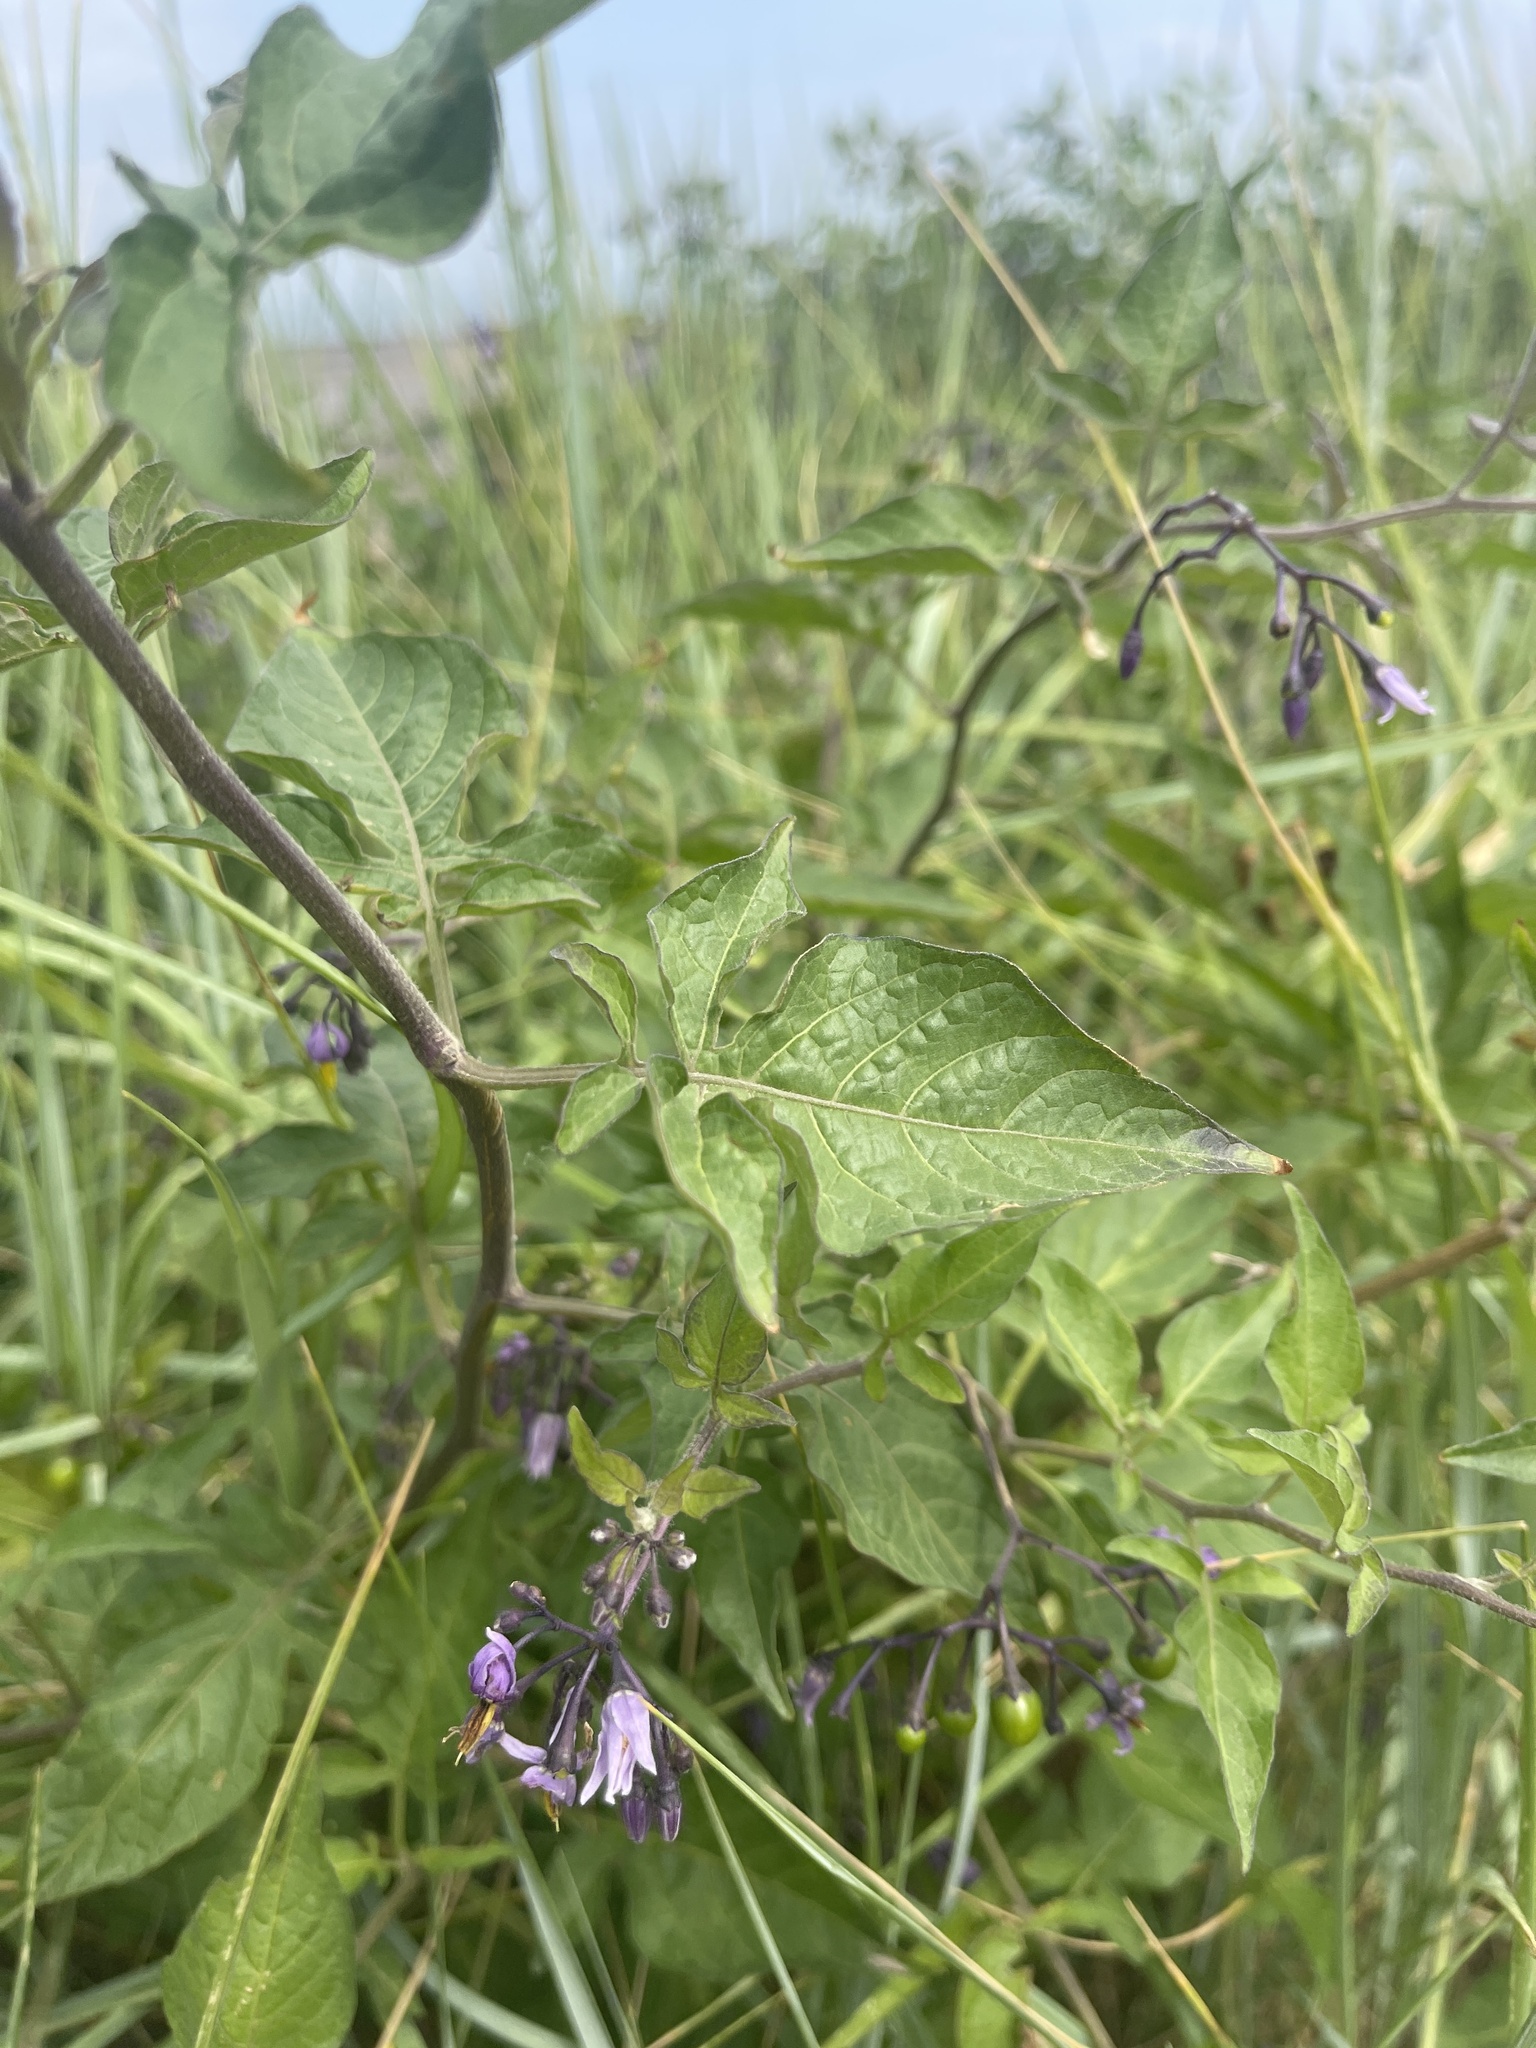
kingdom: Plantae
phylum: Tracheophyta
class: Magnoliopsida
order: Solanales
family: Solanaceae
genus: Solanum
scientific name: Solanum dulcamara
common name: Climbing nightshade
